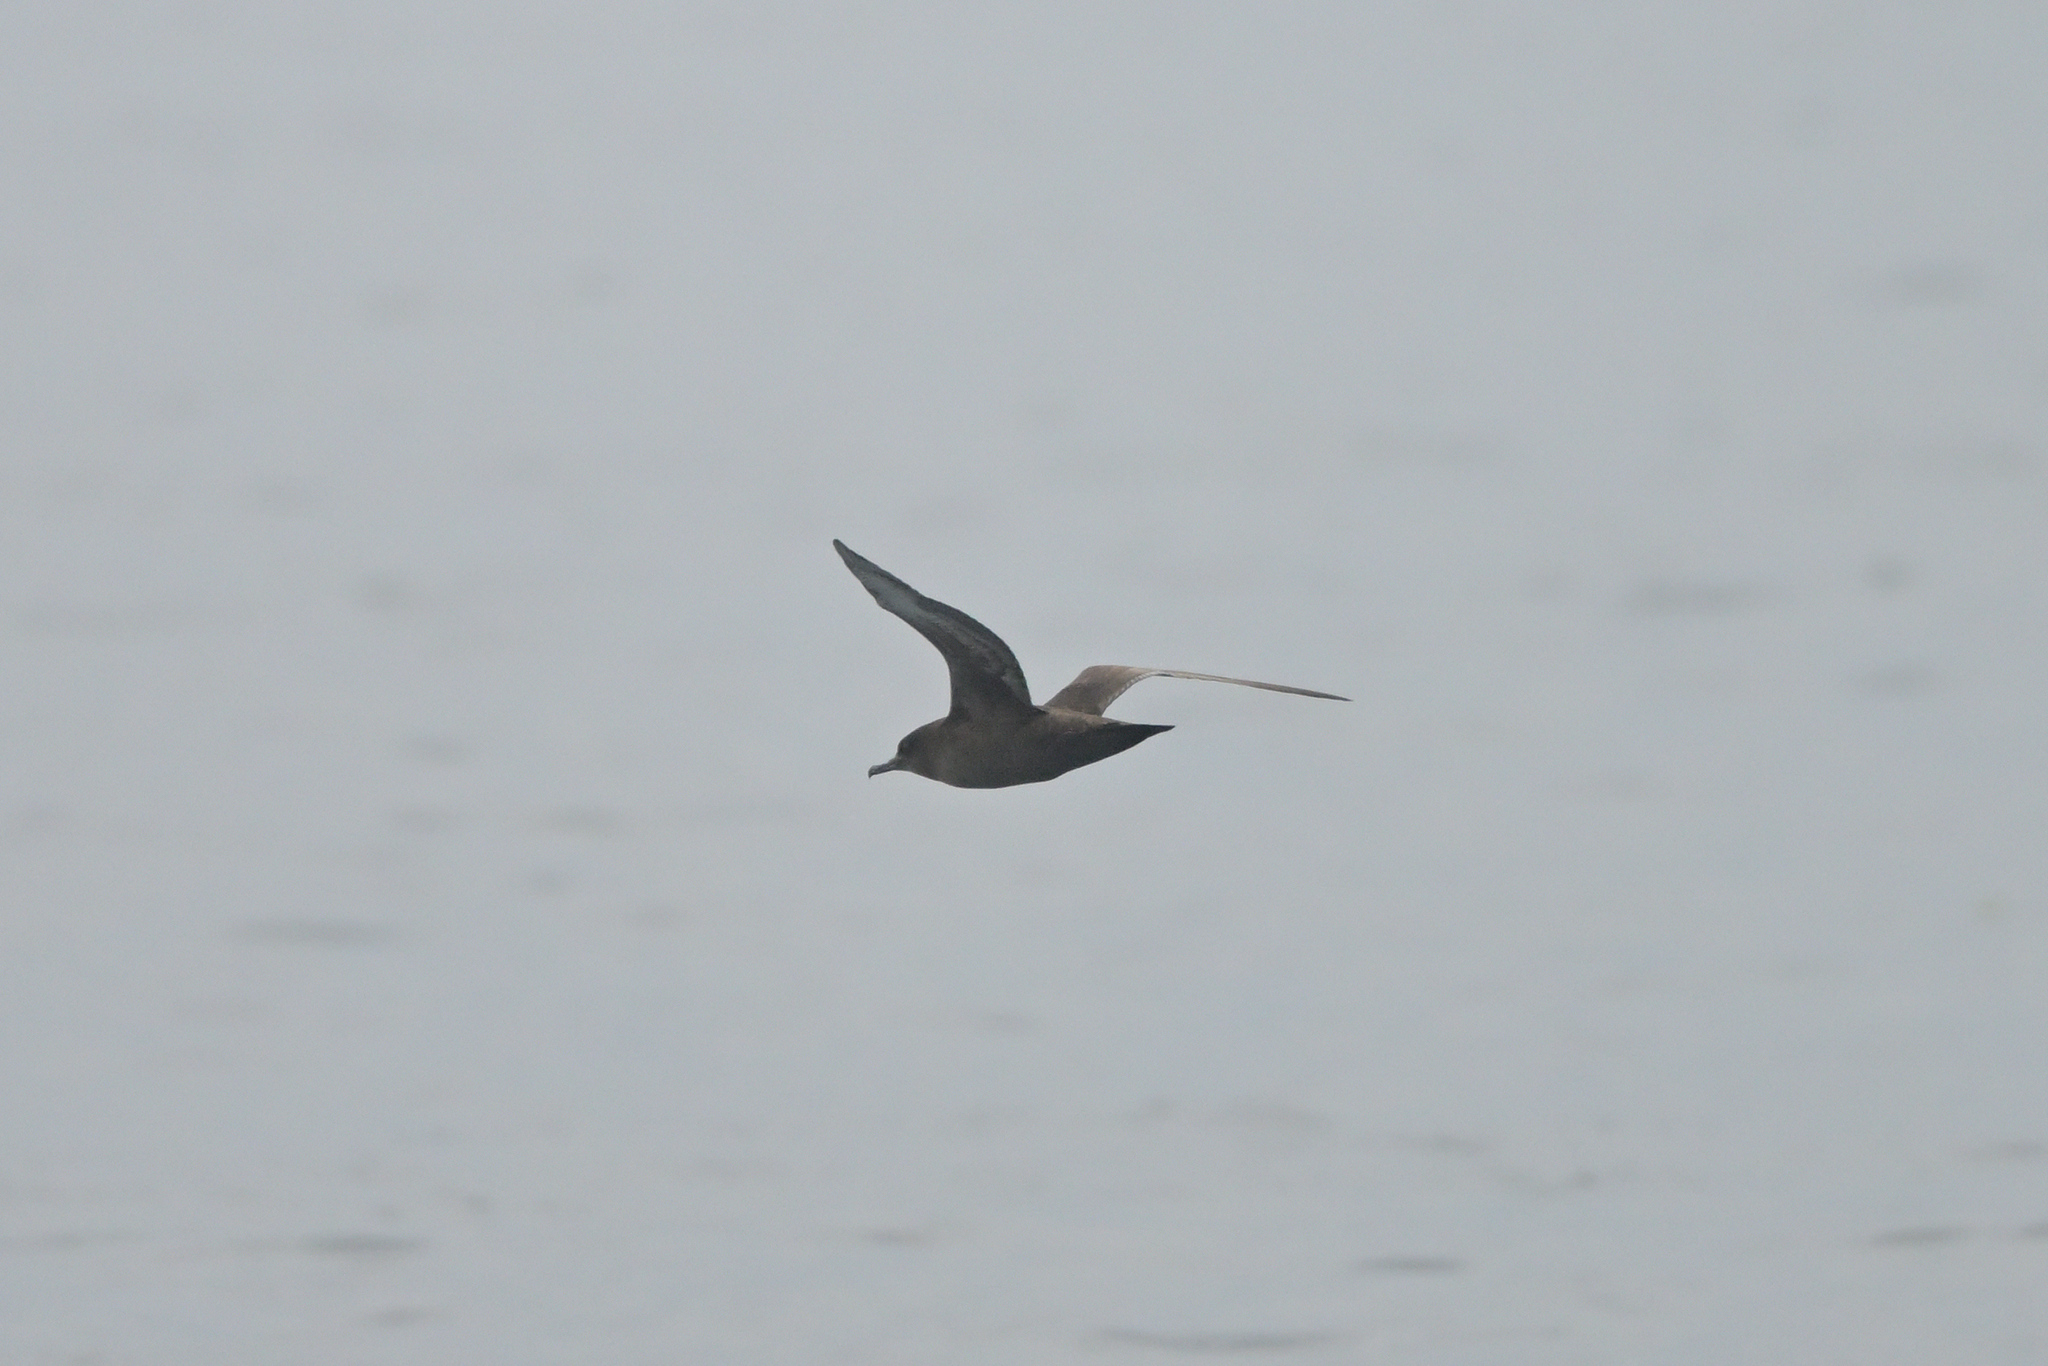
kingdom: Animalia
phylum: Chordata
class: Aves
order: Procellariiformes
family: Procellariidae
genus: Puffinus
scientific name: Puffinus griseus
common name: Sooty shearwater
